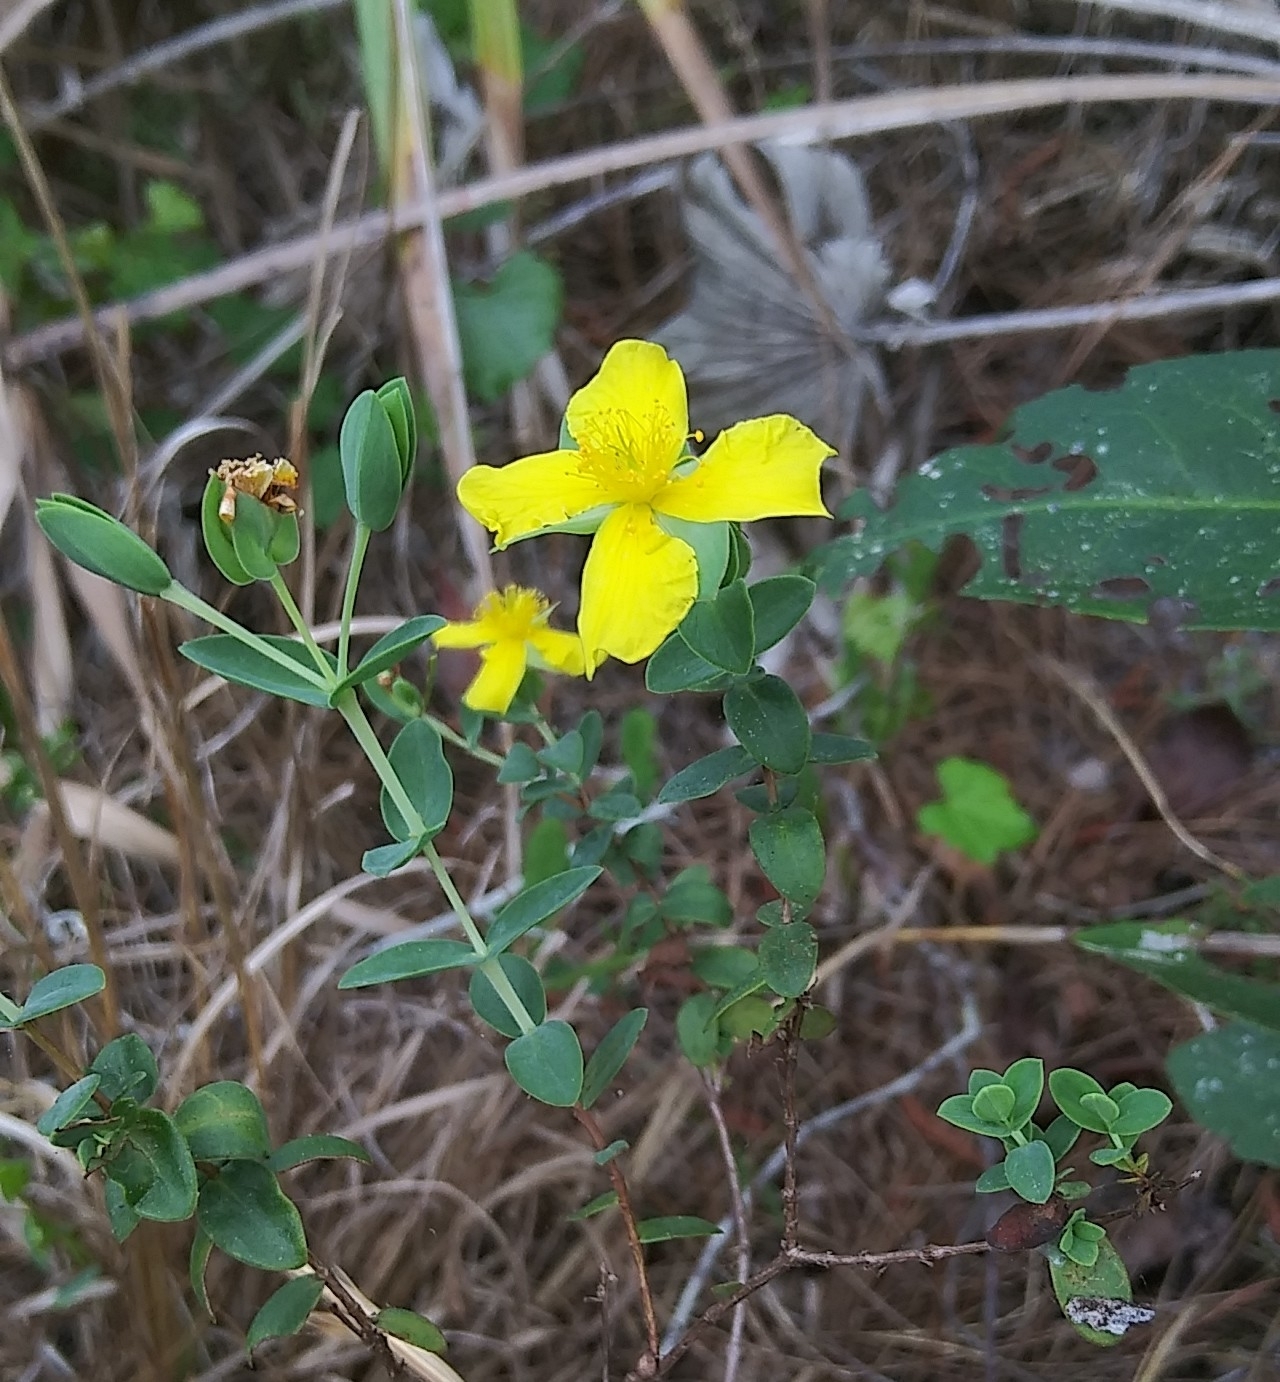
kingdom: Plantae
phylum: Tracheophyta
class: Magnoliopsida
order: Malpighiales
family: Hypericaceae
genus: Hypericum
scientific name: Hypericum tetrapetalum
